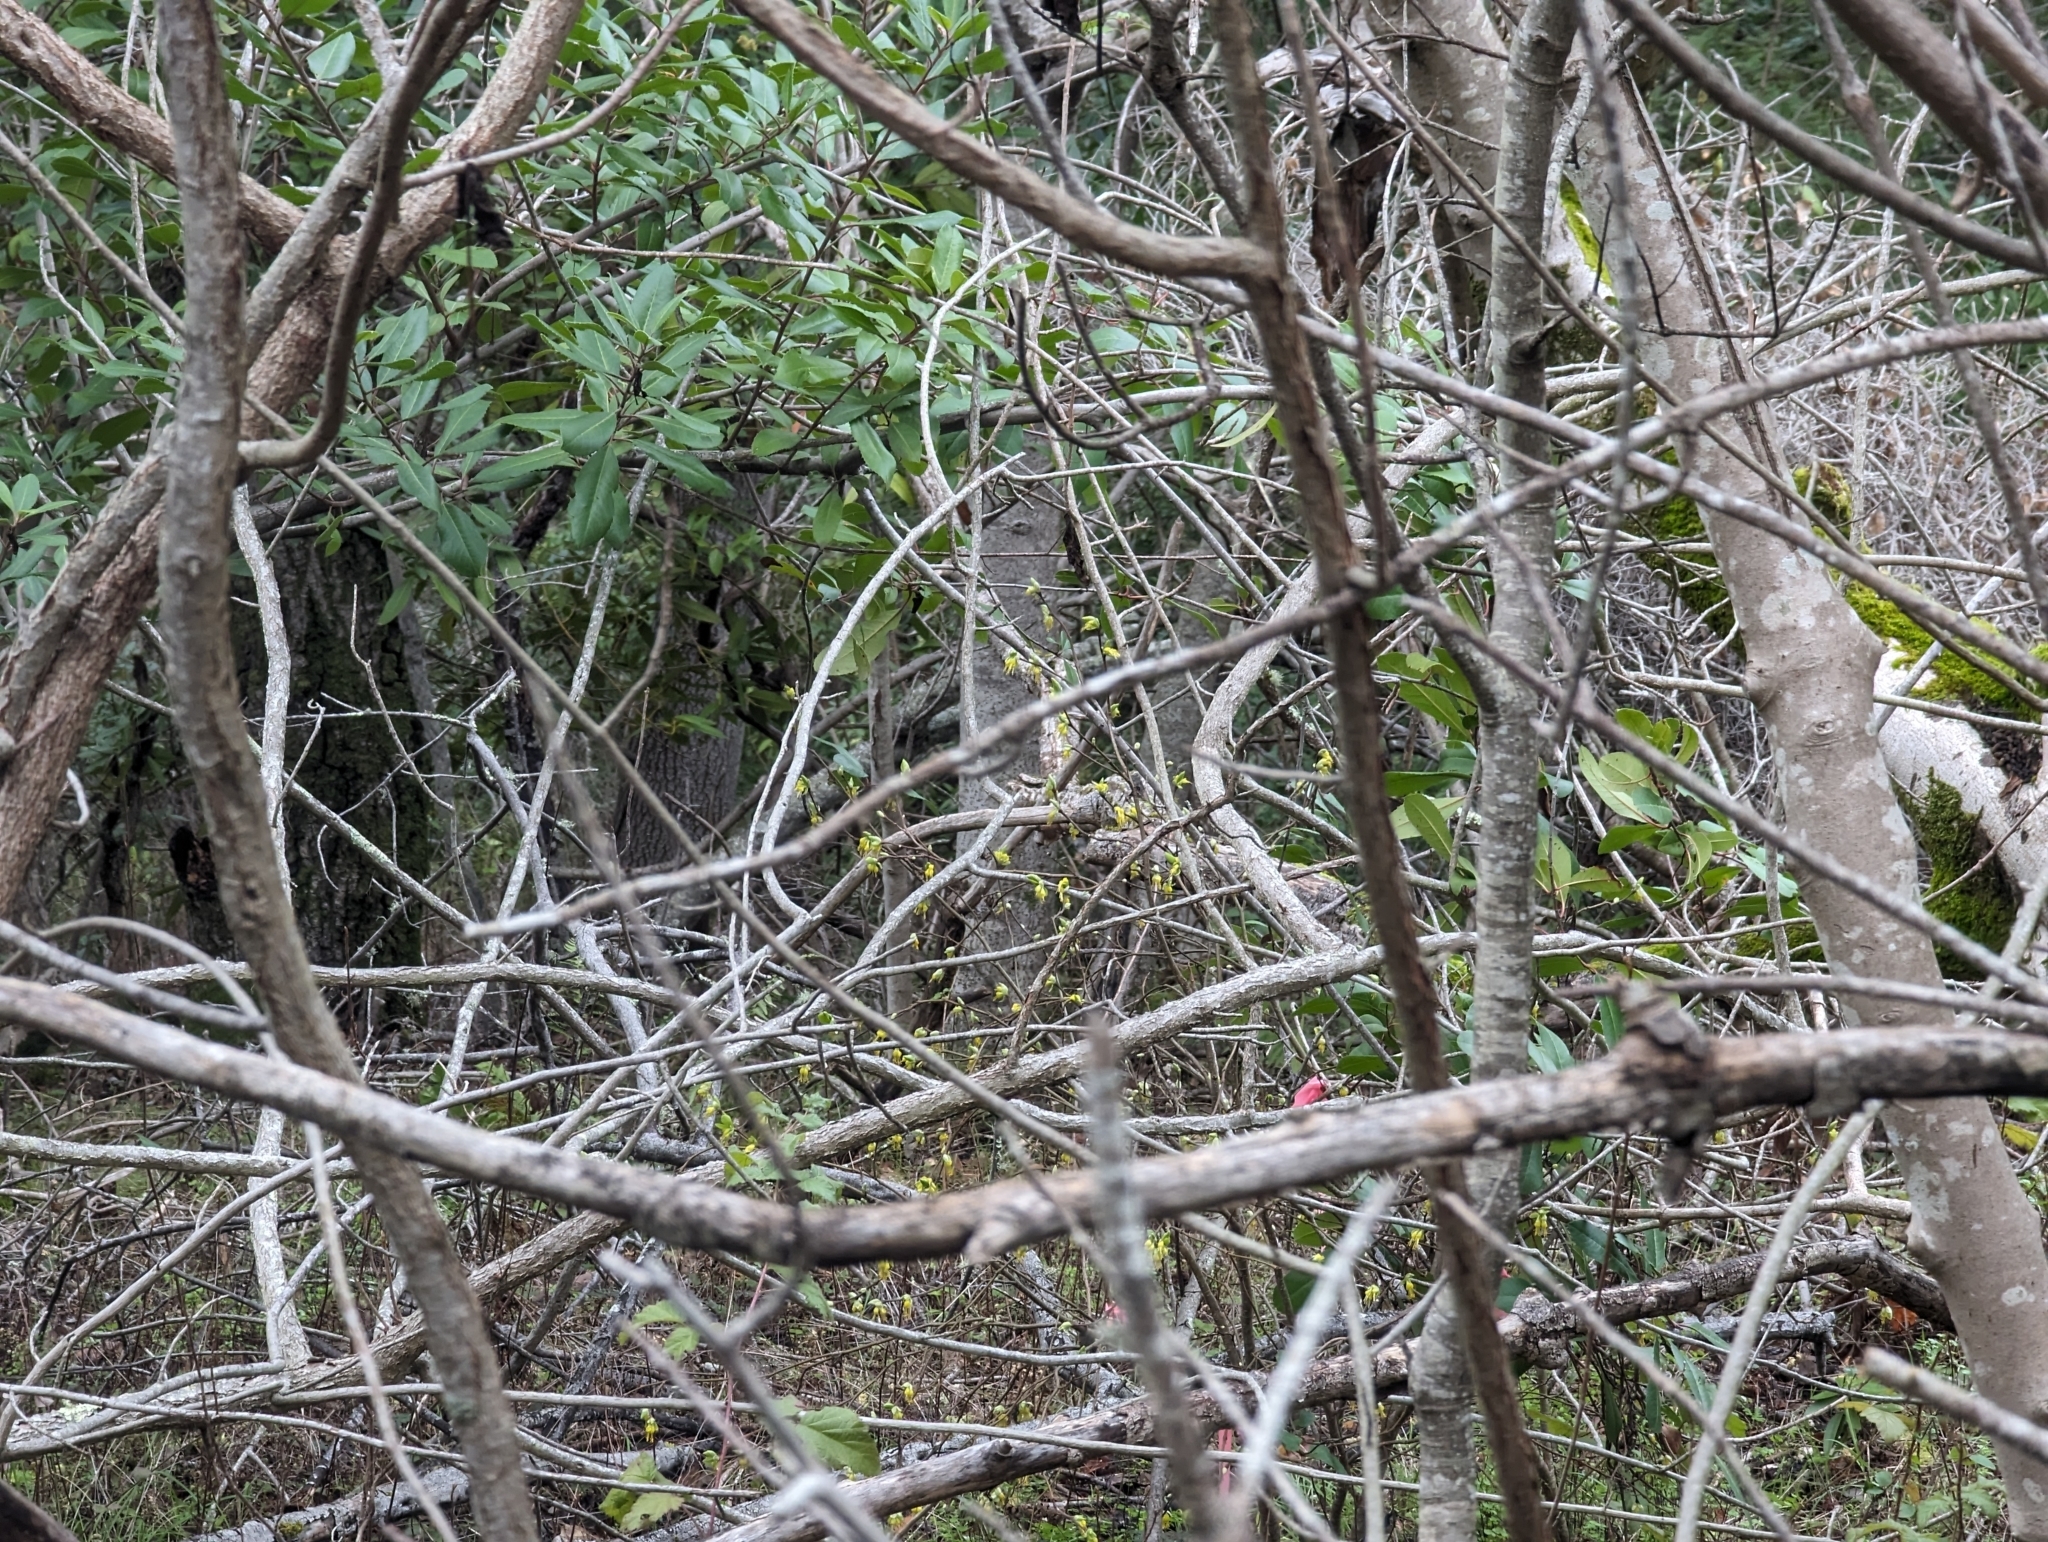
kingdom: Plantae
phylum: Tracheophyta
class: Magnoliopsida
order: Malvales
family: Thymelaeaceae
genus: Dirca
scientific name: Dirca occidentalis
